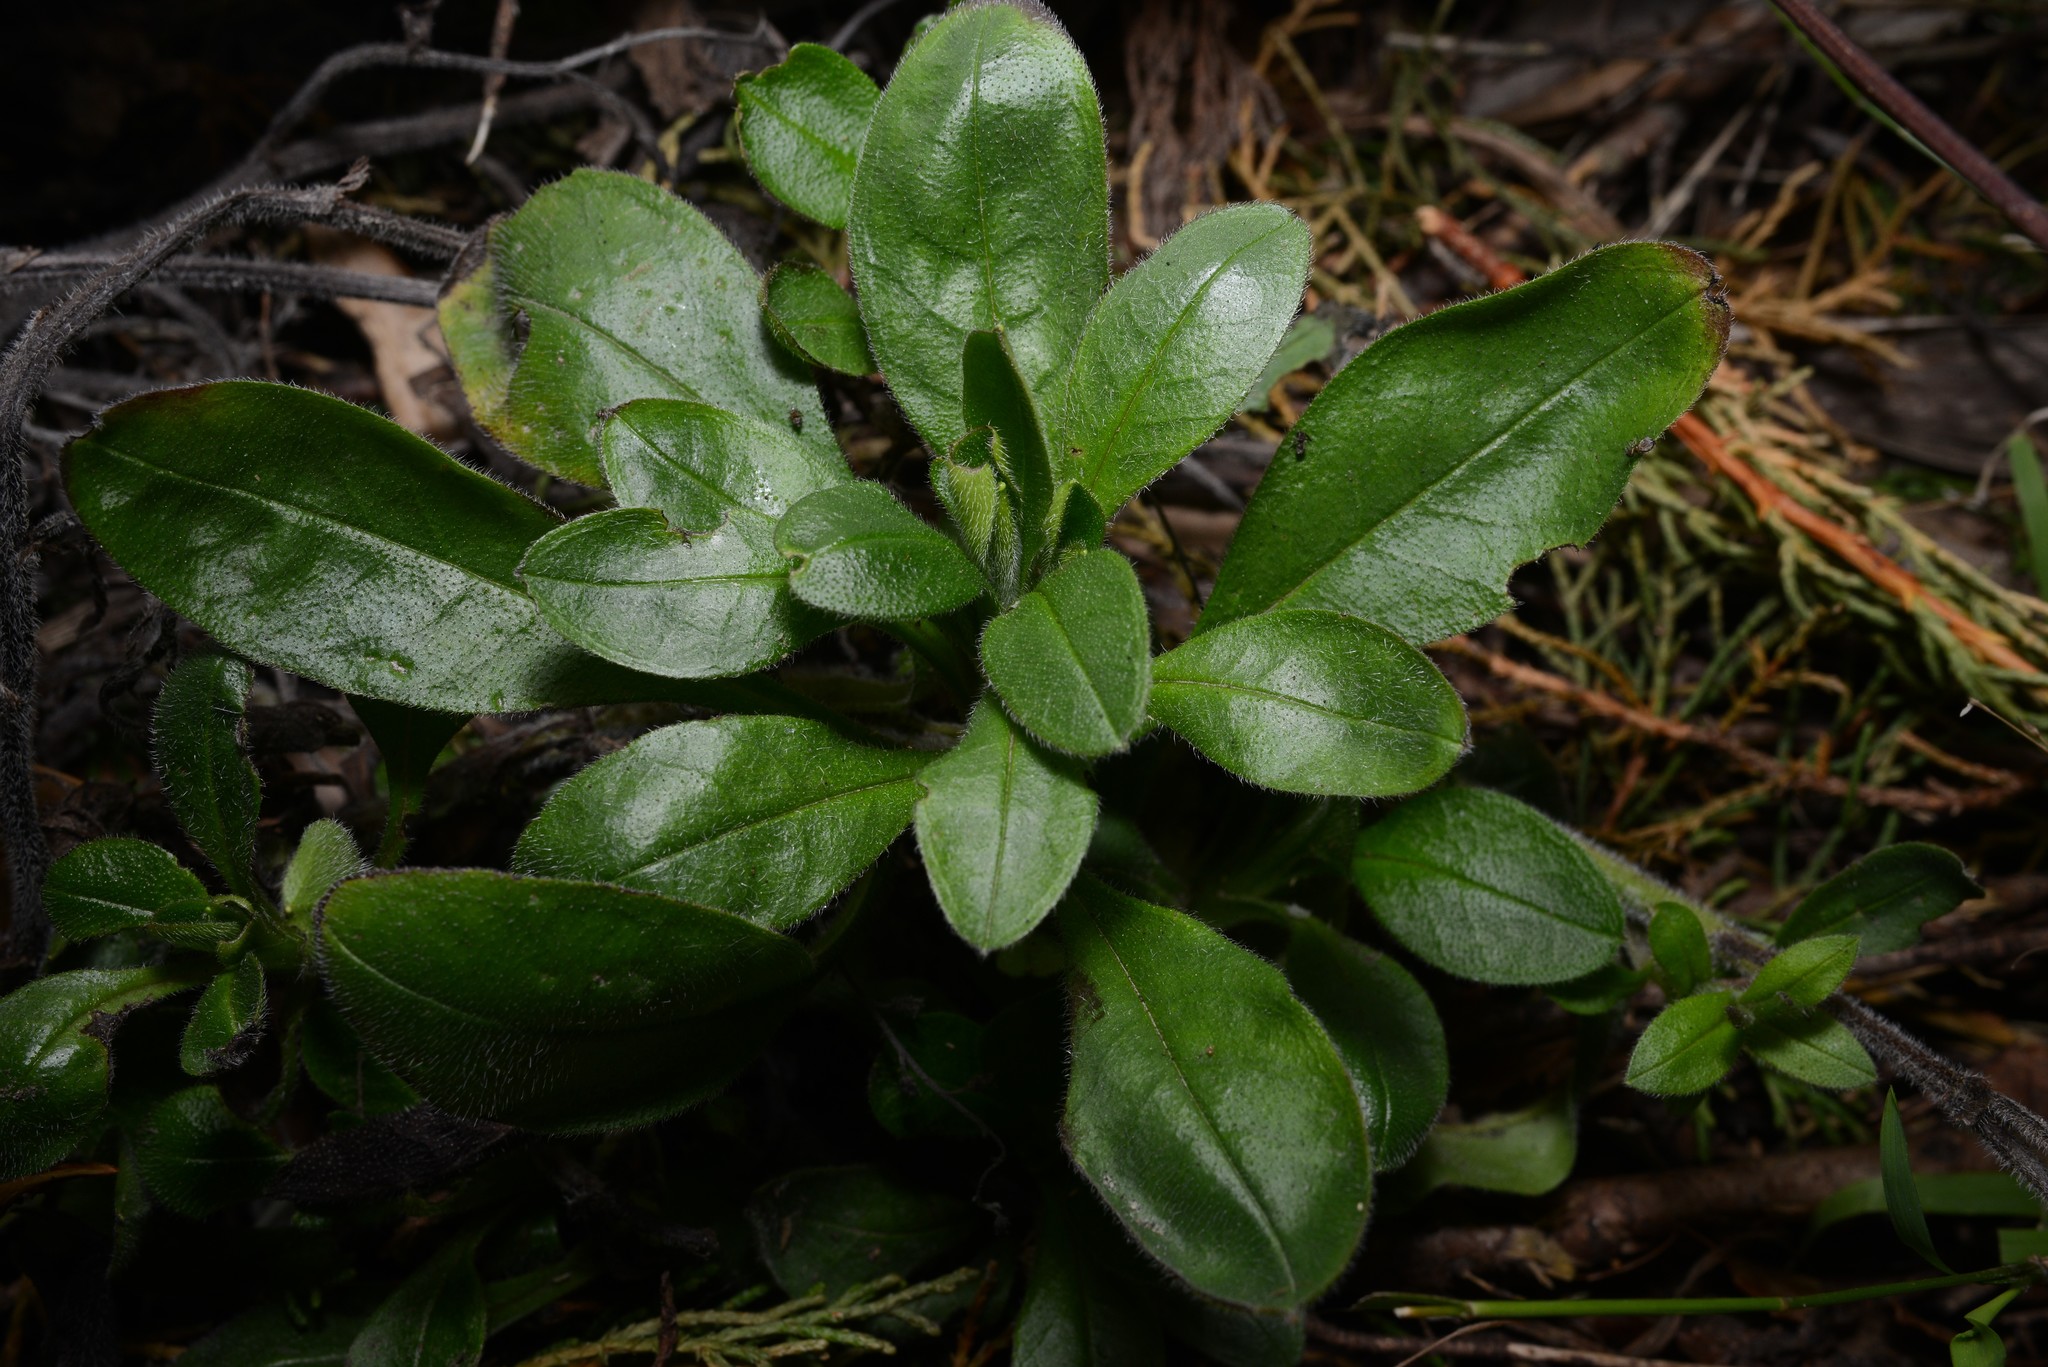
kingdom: Plantae
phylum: Tracheophyta
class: Magnoliopsida
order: Boraginales
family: Boraginaceae
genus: Myosotis
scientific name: Myosotis sylvatica
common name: Wood forget-me-not
